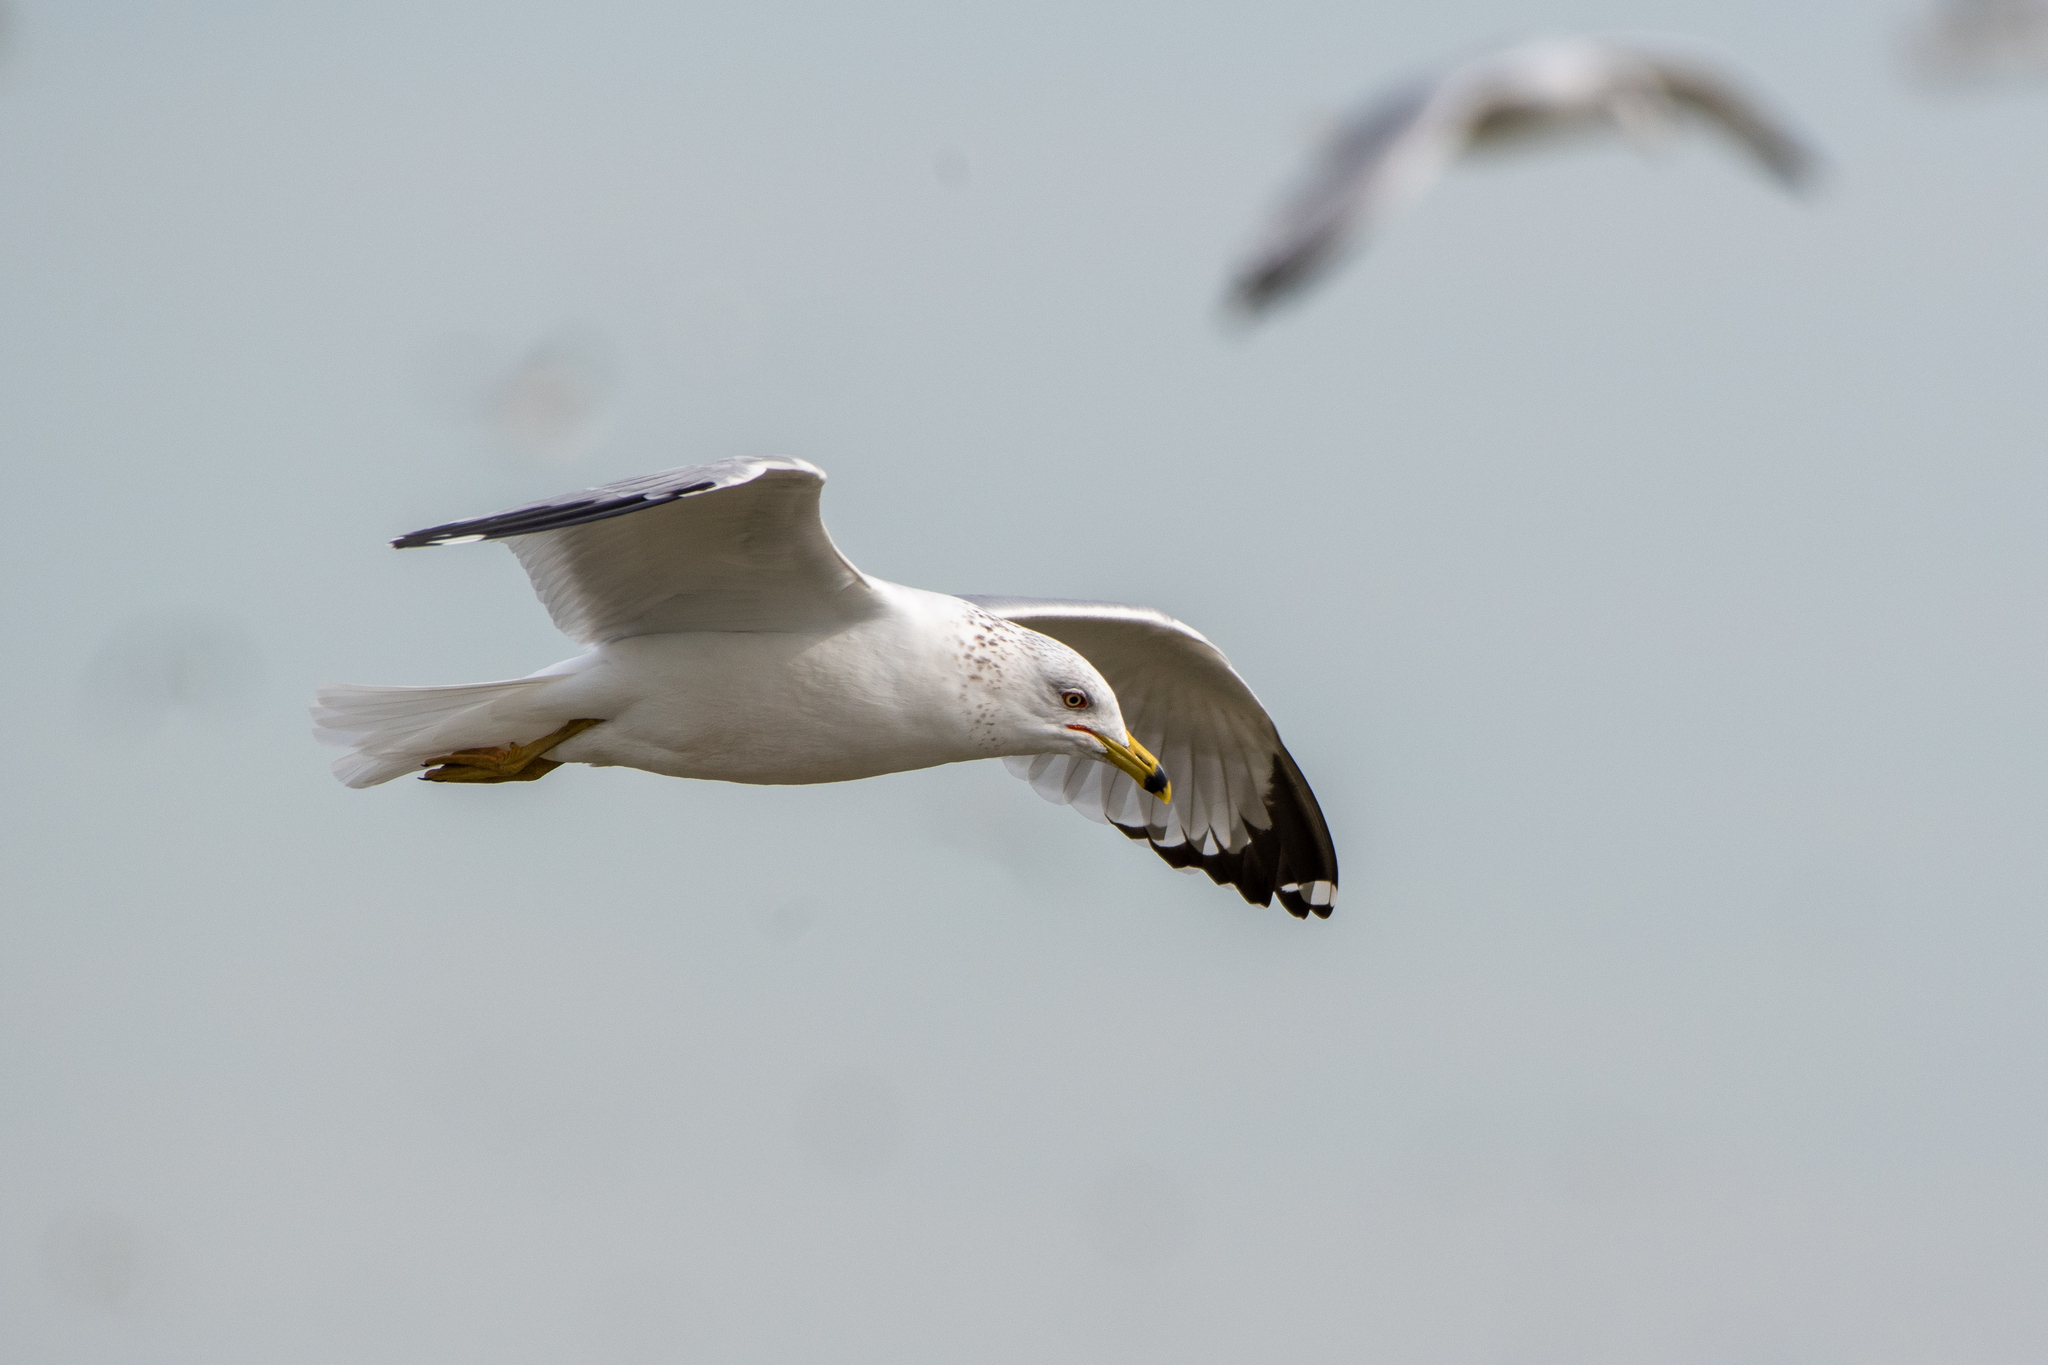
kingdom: Animalia
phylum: Chordata
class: Aves
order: Charadriiformes
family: Laridae
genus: Larus
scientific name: Larus delawarensis
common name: Ring-billed gull
